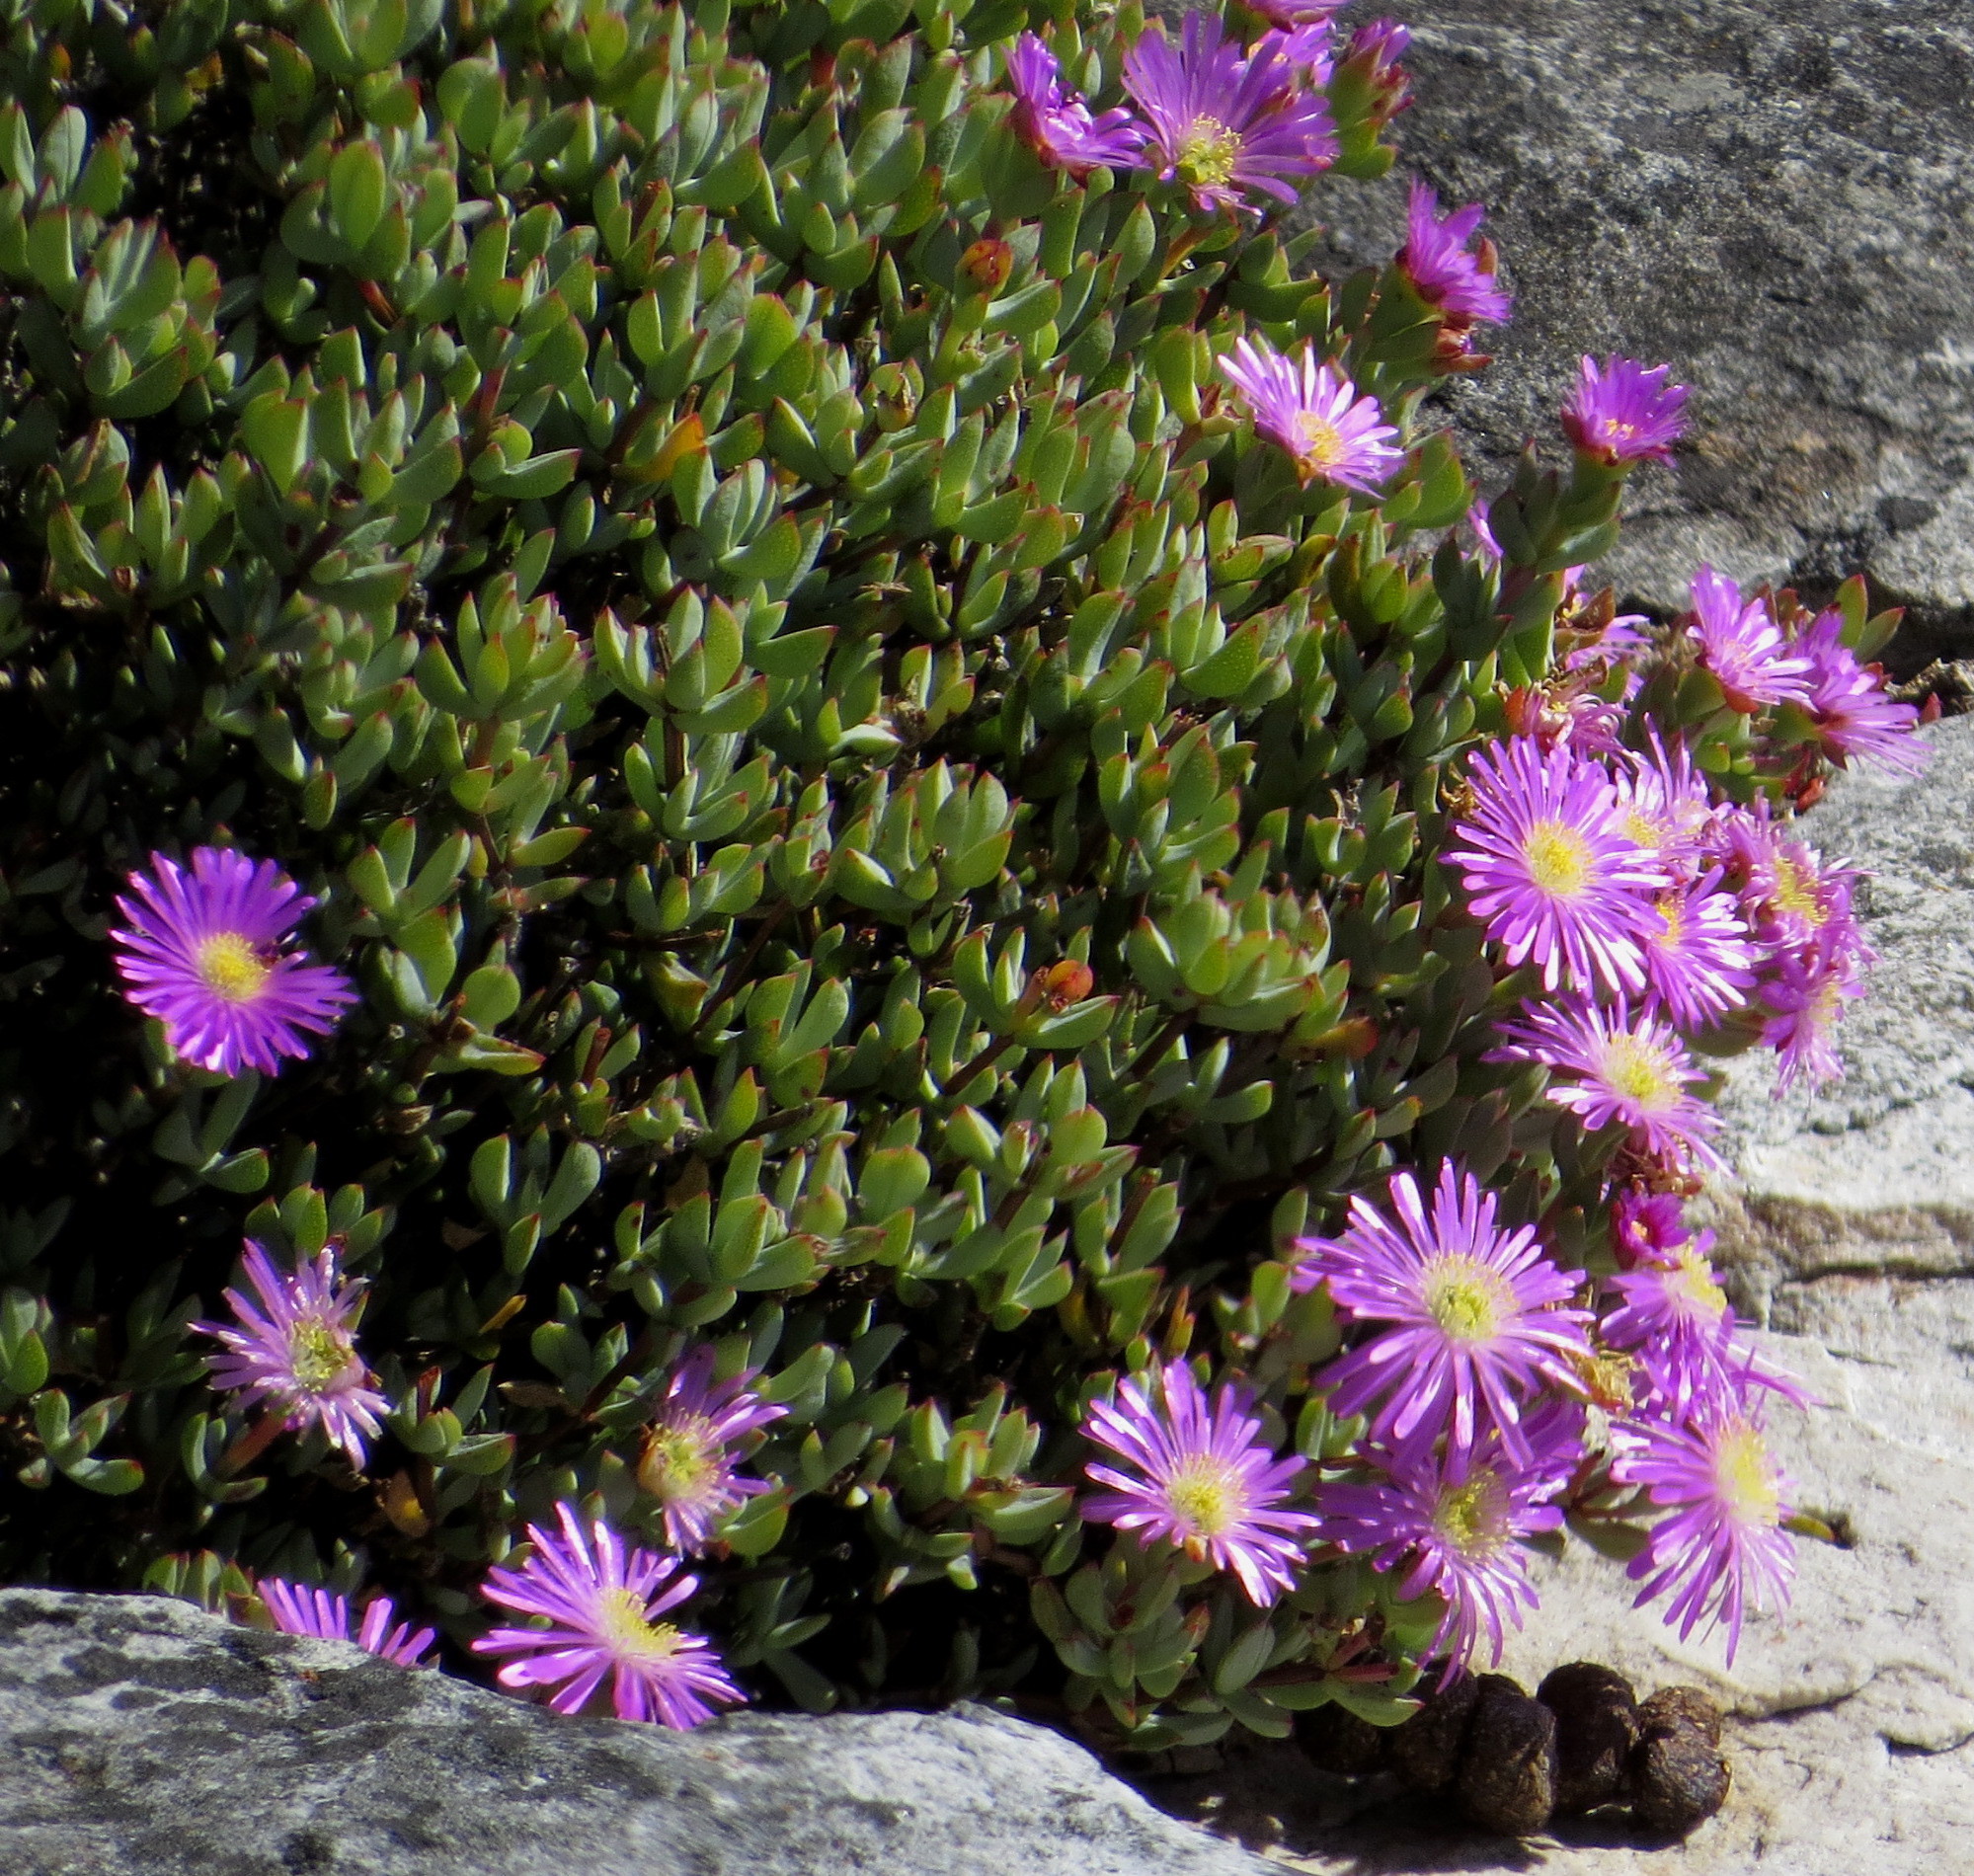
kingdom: Plantae
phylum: Tracheophyta
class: Magnoliopsida
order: Caryophyllales
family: Aizoaceae
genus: Oscularia
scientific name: Oscularia falciformis
